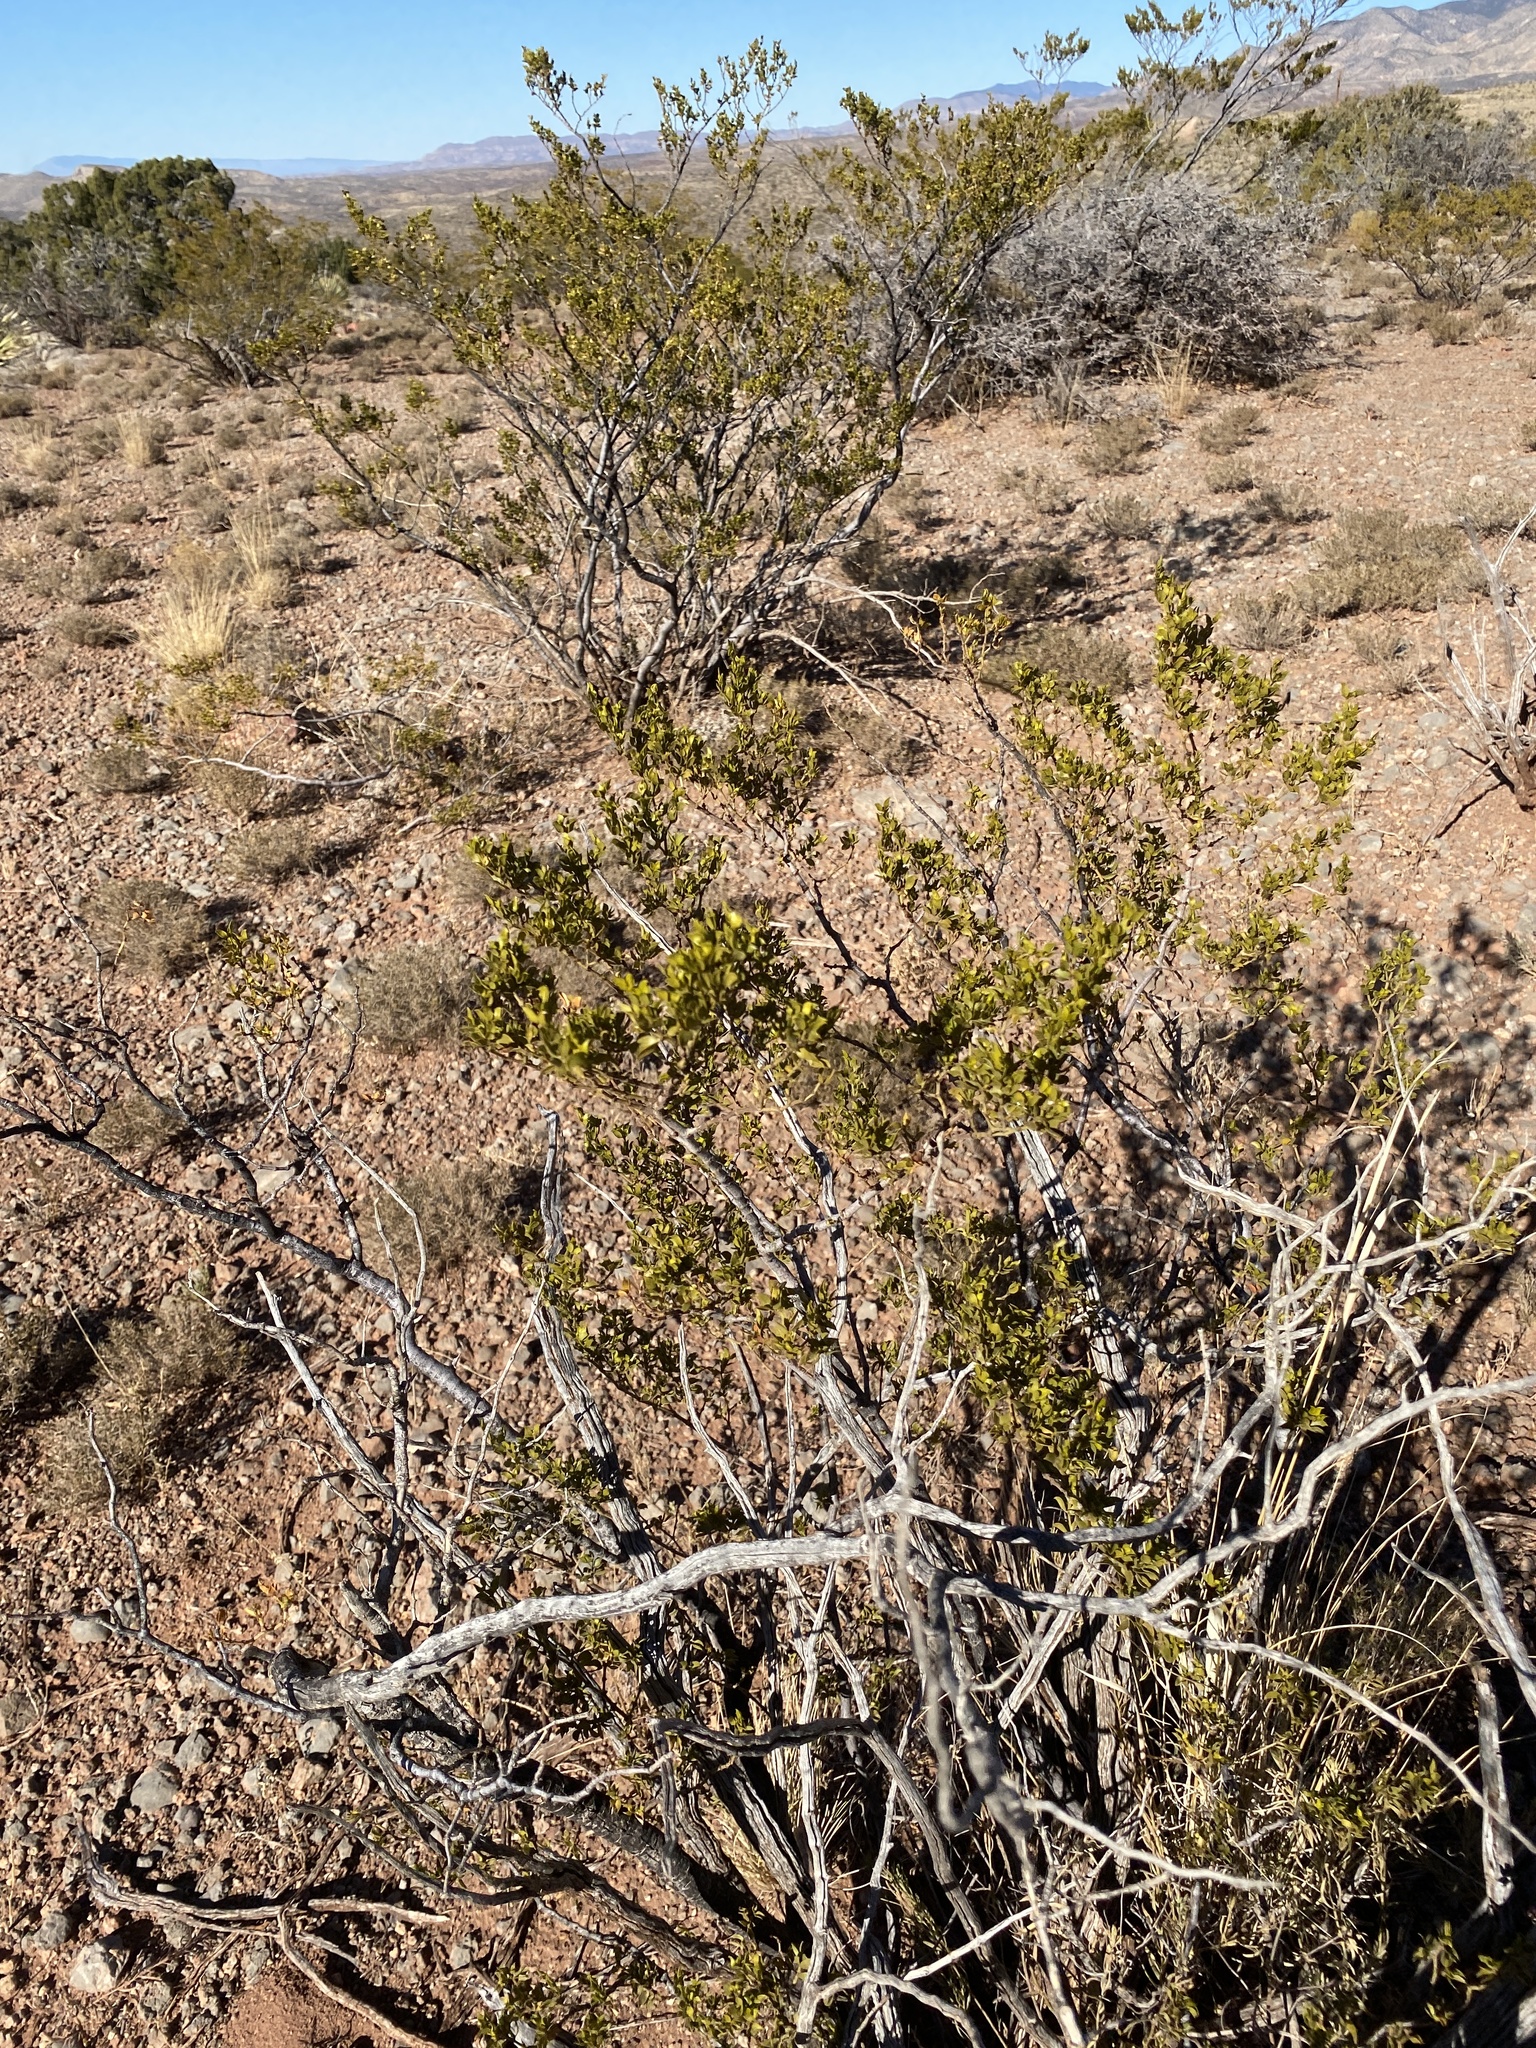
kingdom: Plantae
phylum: Tracheophyta
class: Magnoliopsida
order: Zygophyllales
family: Zygophyllaceae
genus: Larrea
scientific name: Larrea tridentata
